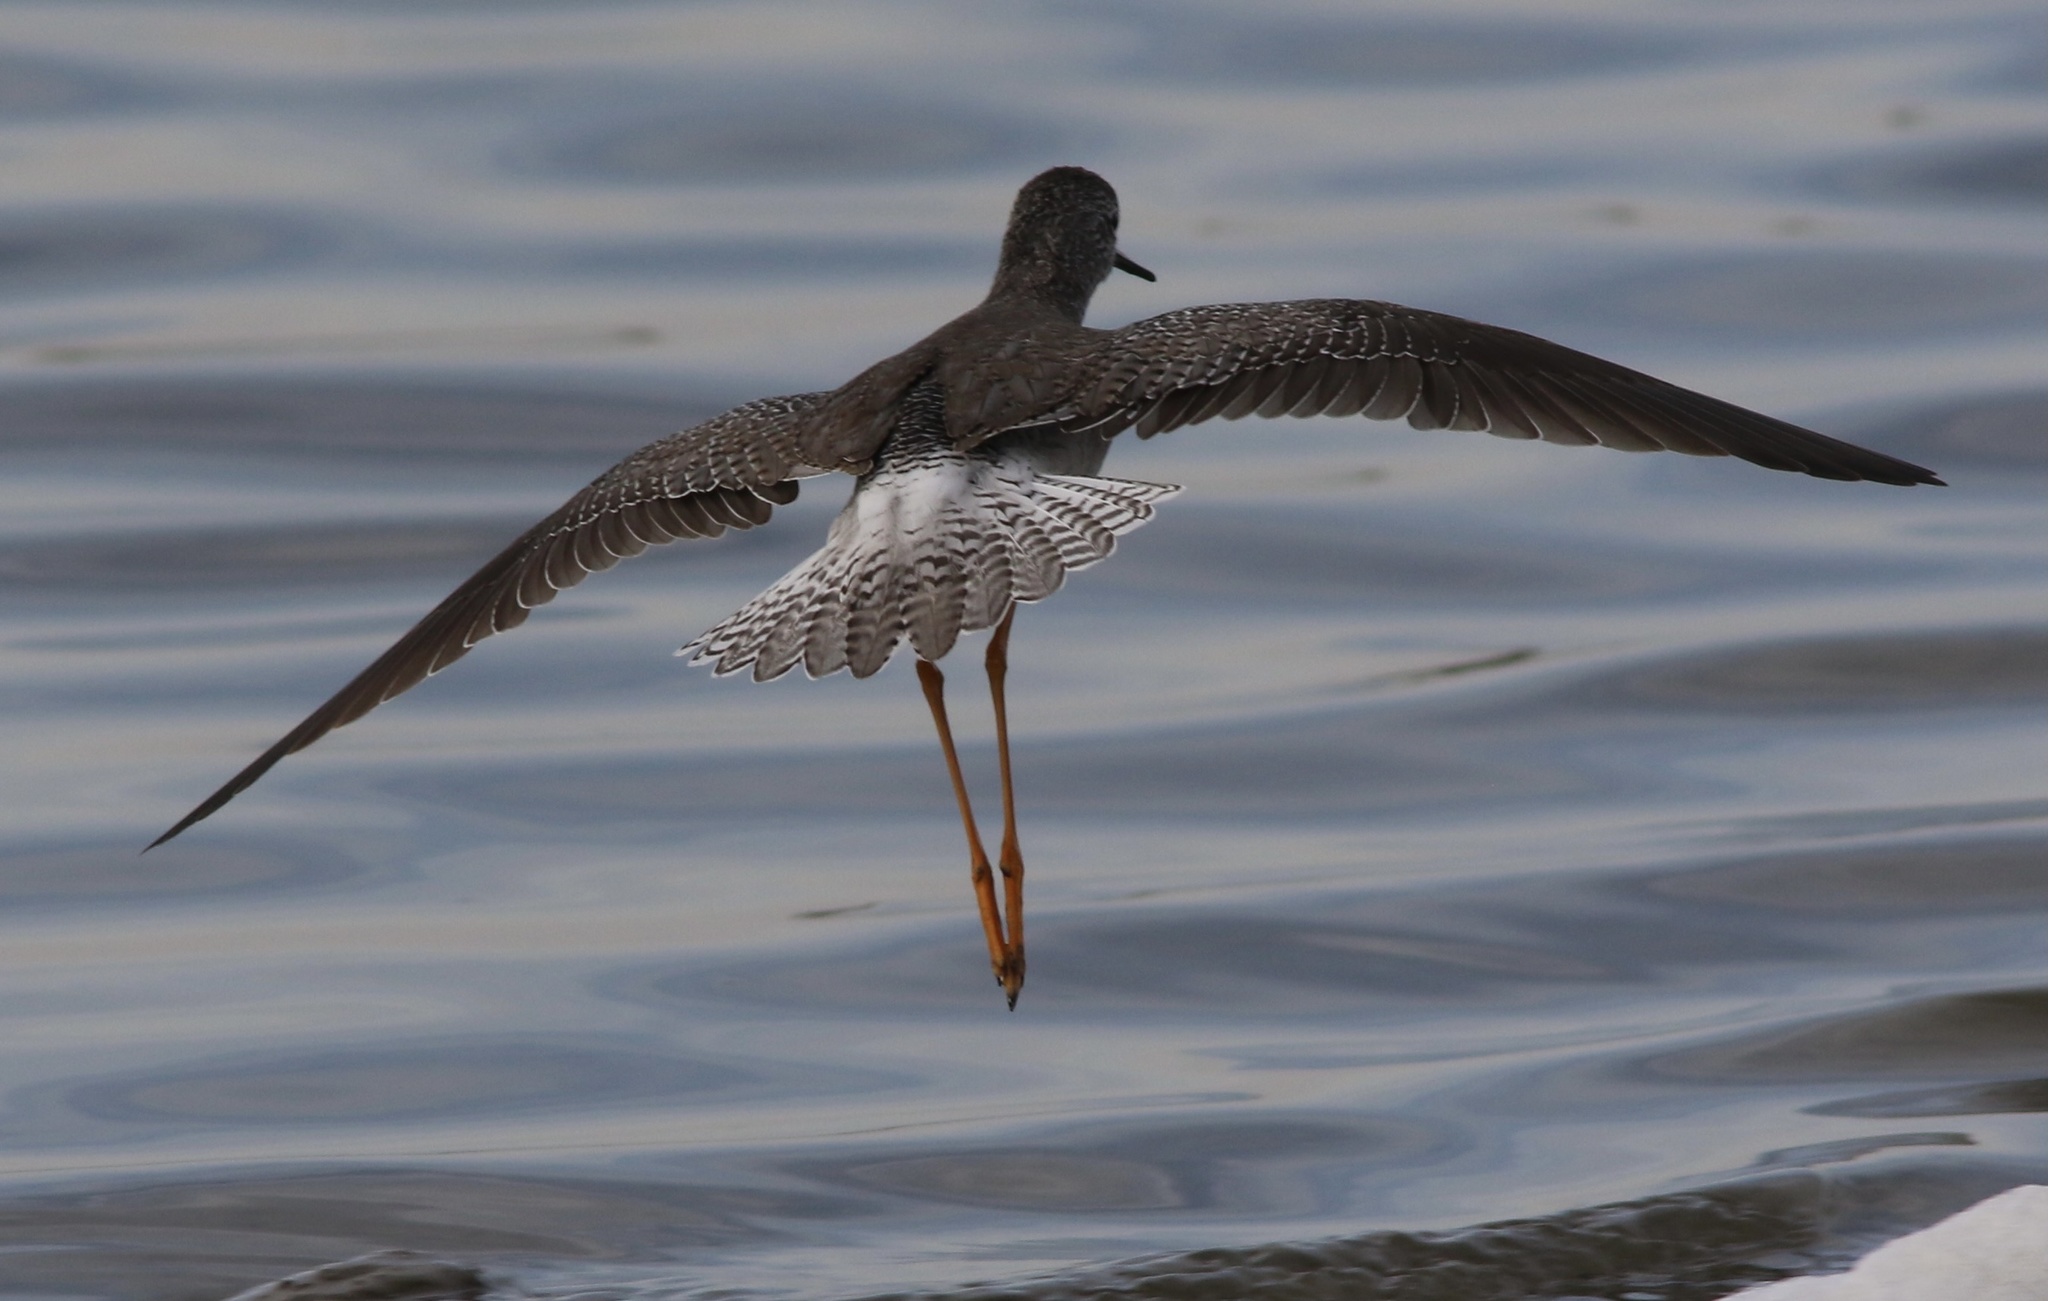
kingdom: Animalia
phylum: Chordata
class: Aves
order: Charadriiformes
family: Scolopacidae
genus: Tringa
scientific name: Tringa flavipes
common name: Lesser yellowlegs
